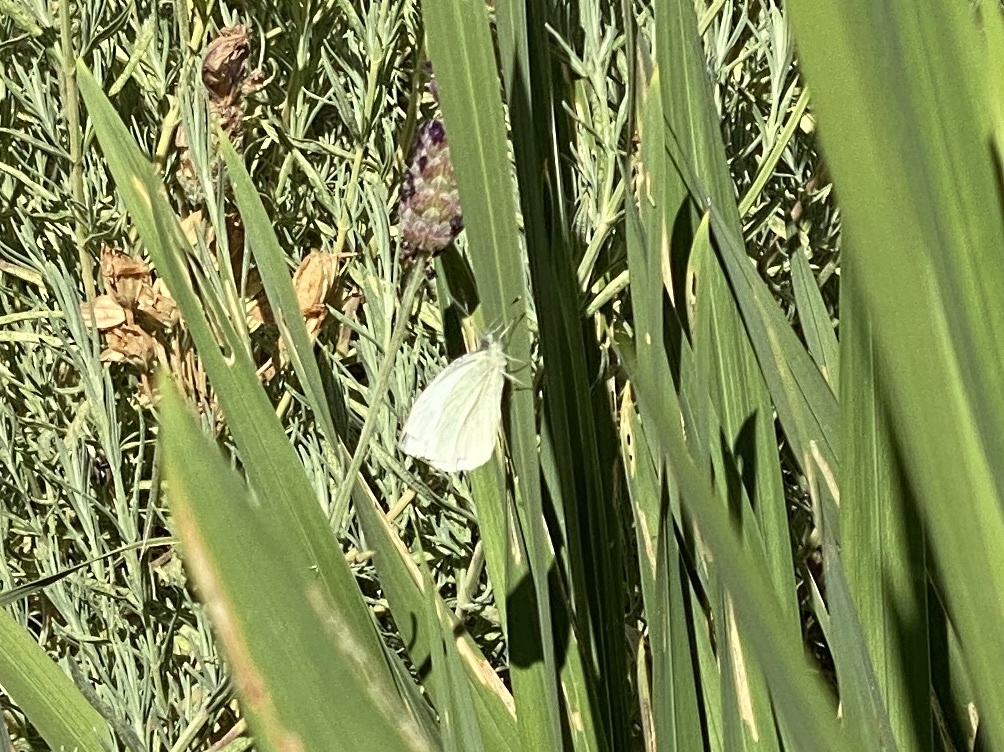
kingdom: Animalia
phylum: Arthropoda
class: Insecta
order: Lepidoptera
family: Pieridae
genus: Pieris
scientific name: Pieris rapae
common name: Small white
